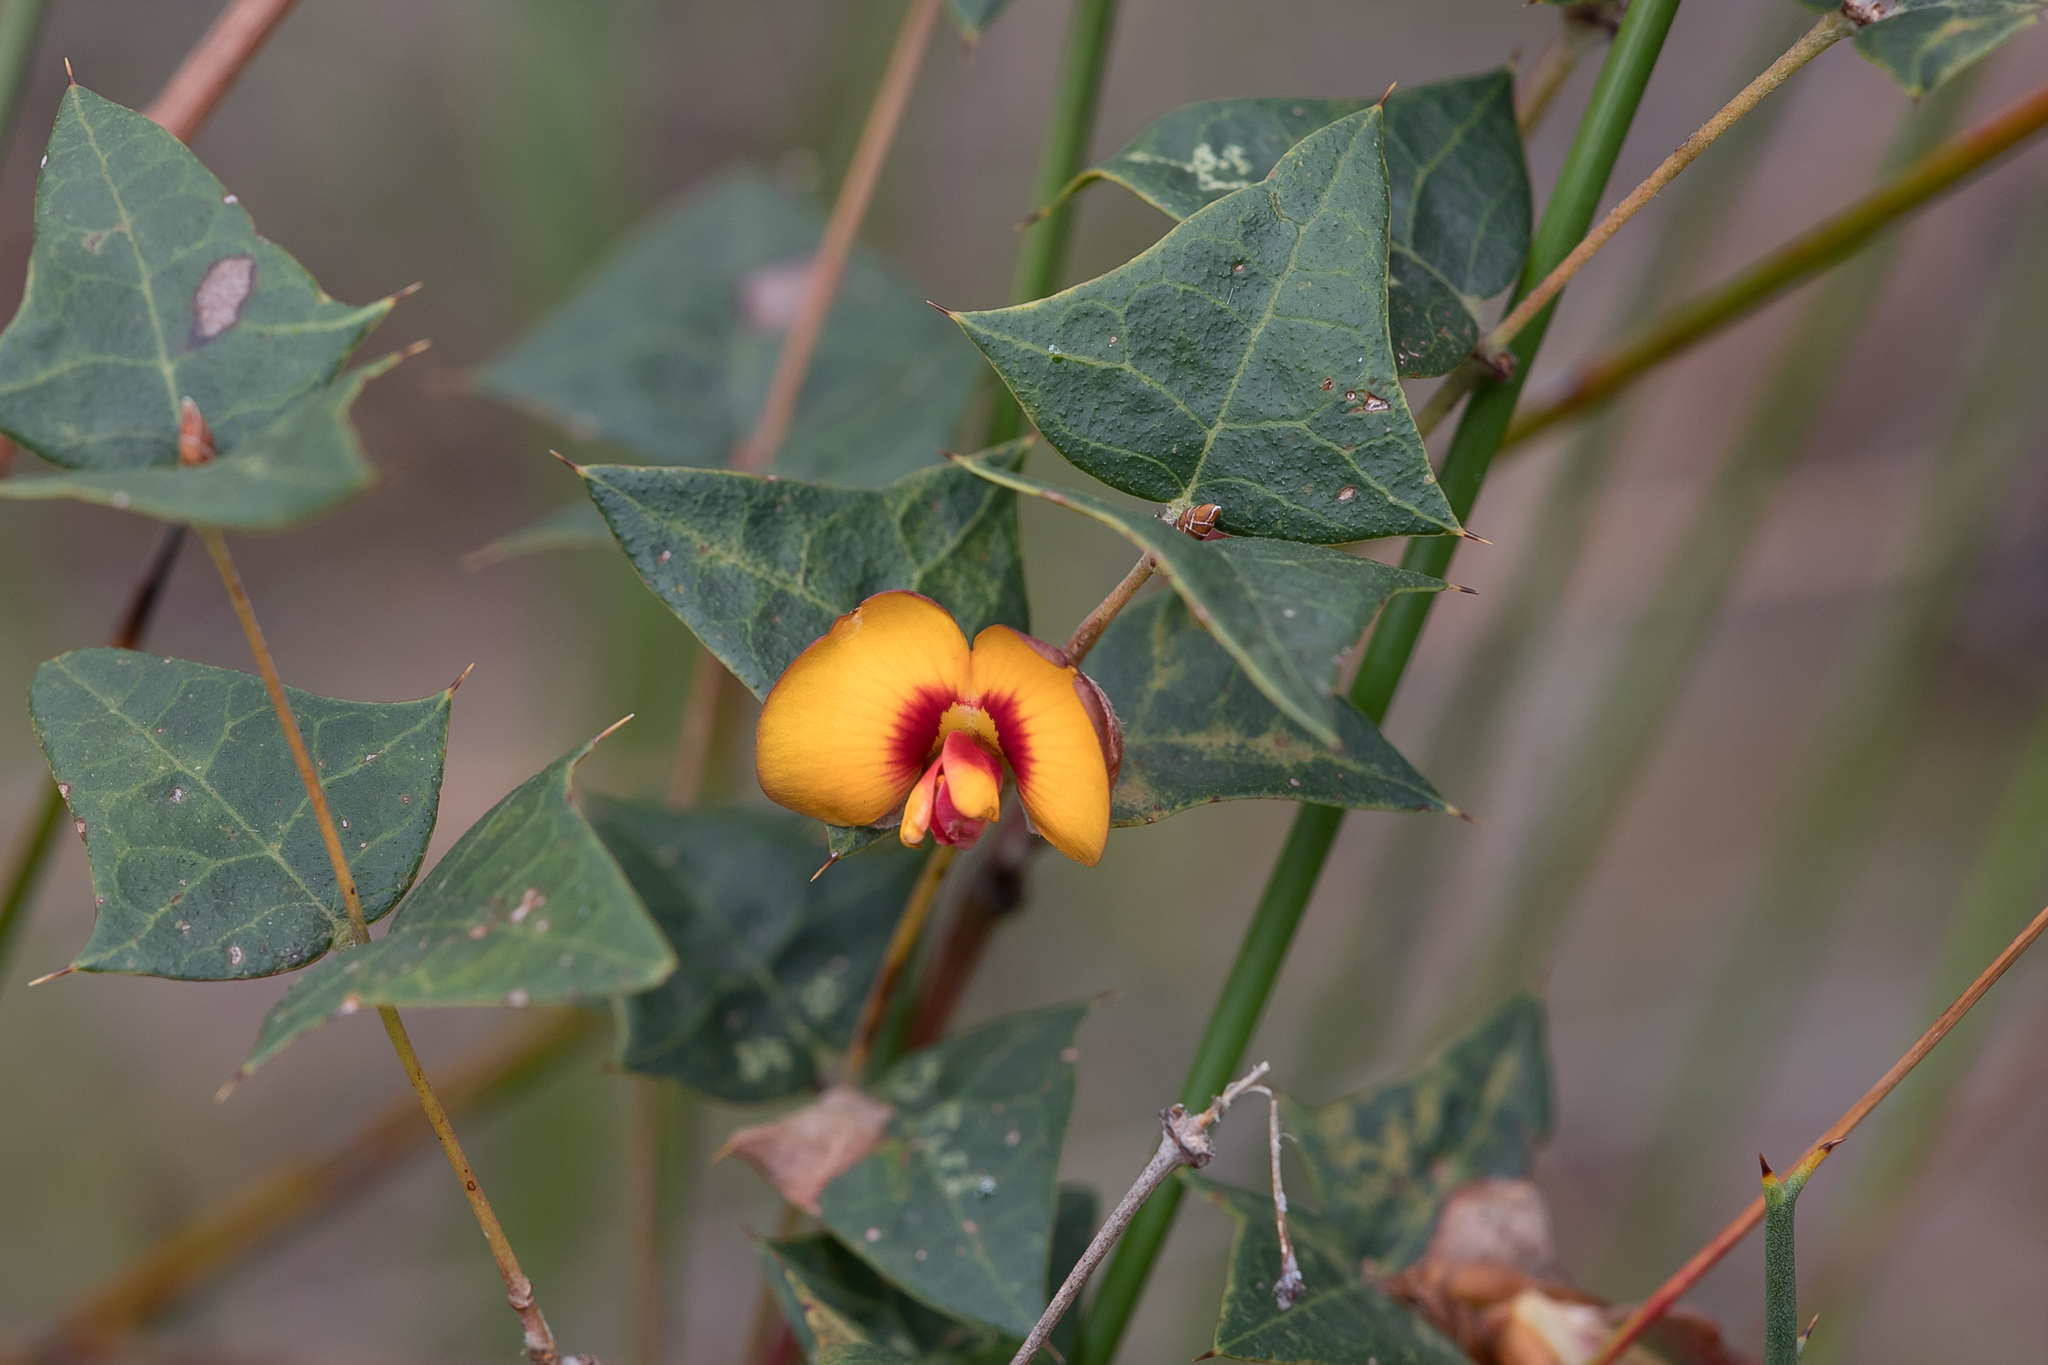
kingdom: Plantae
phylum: Tracheophyta
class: Magnoliopsida
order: Fabales
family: Fabaceae
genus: Platylobium
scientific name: Platylobium obtusangulum
